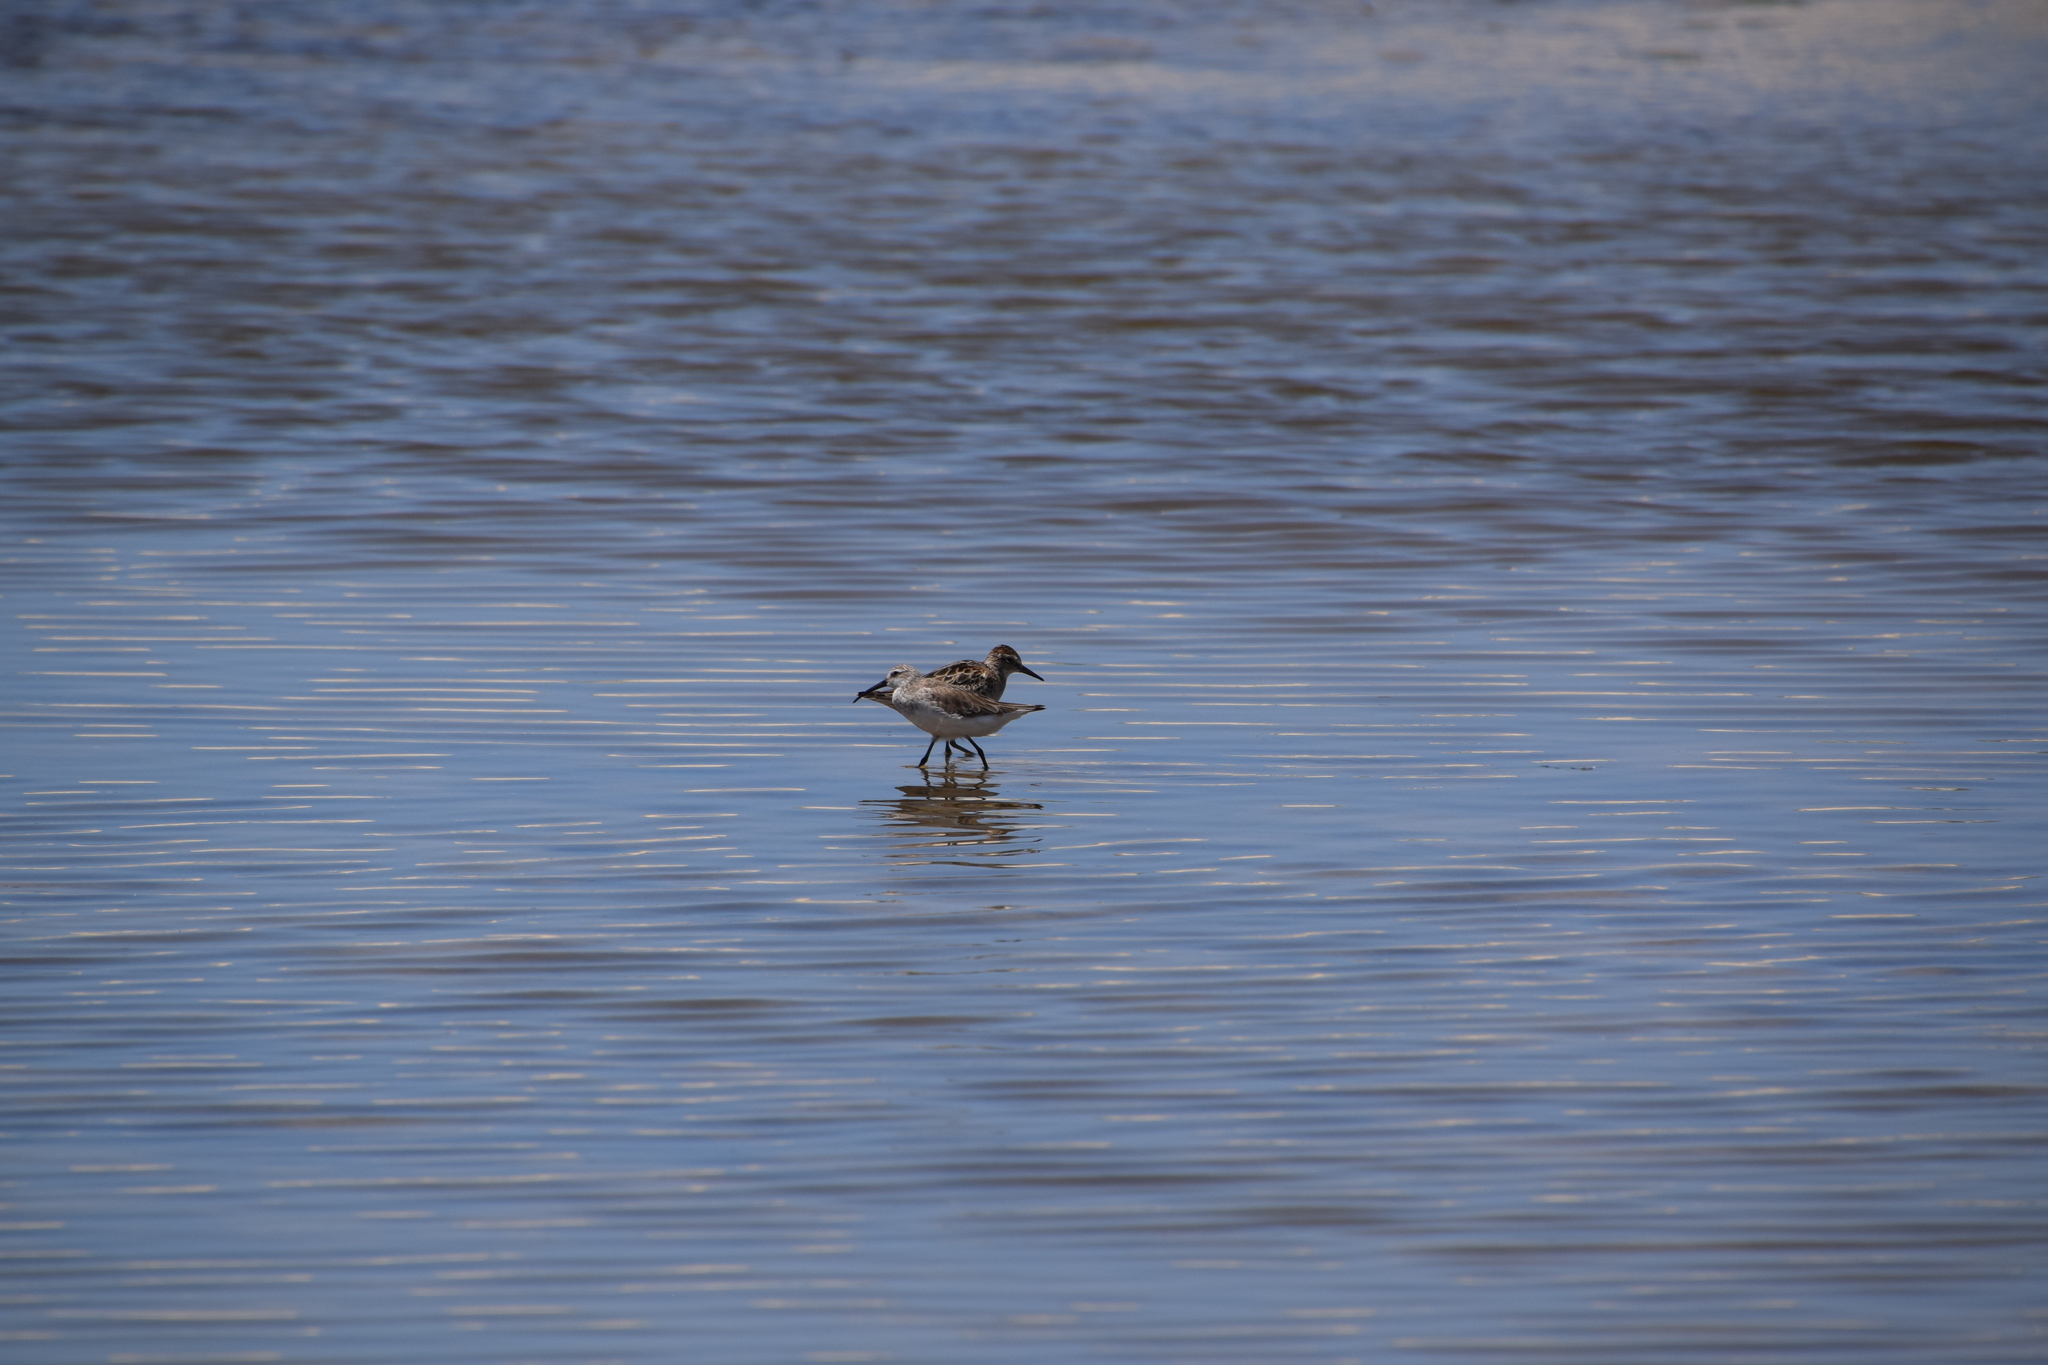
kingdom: Animalia
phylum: Chordata
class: Aves
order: Charadriiformes
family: Scolopacidae
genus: Calidris
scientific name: Calidris ferruginea
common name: Curlew sandpiper
